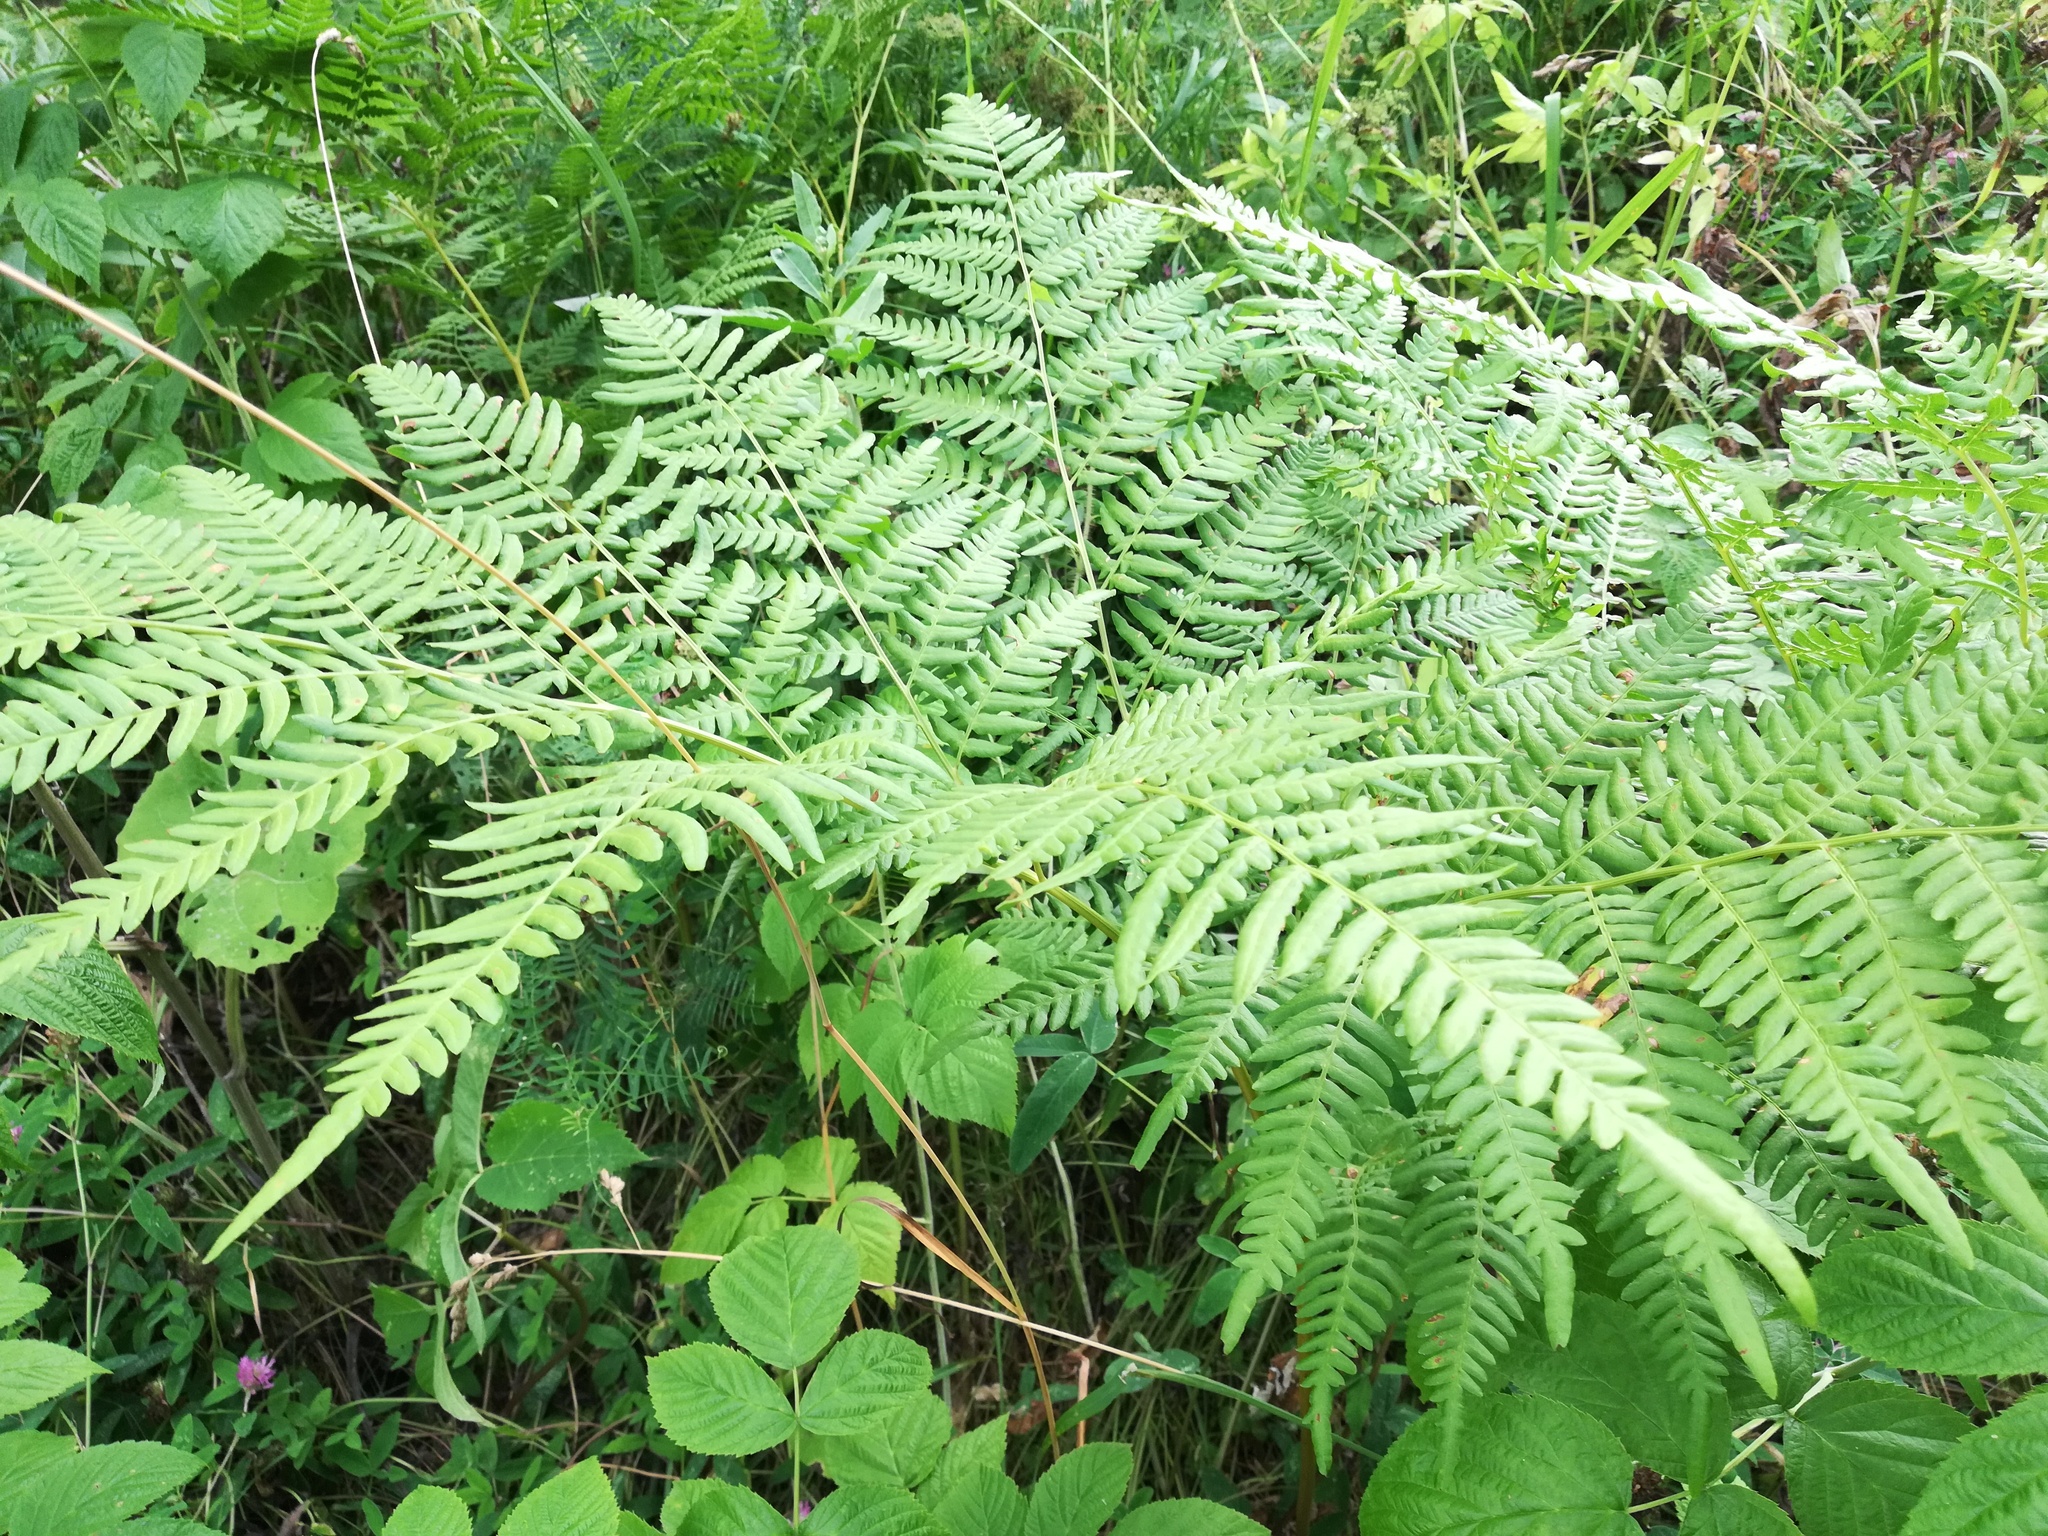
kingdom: Plantae
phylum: Tracheophyta
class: Polypodiopsida
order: Polypodiales
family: Dennstaedtiaceae
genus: Pteridium
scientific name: Pteridium aquilinum
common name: Bracken
